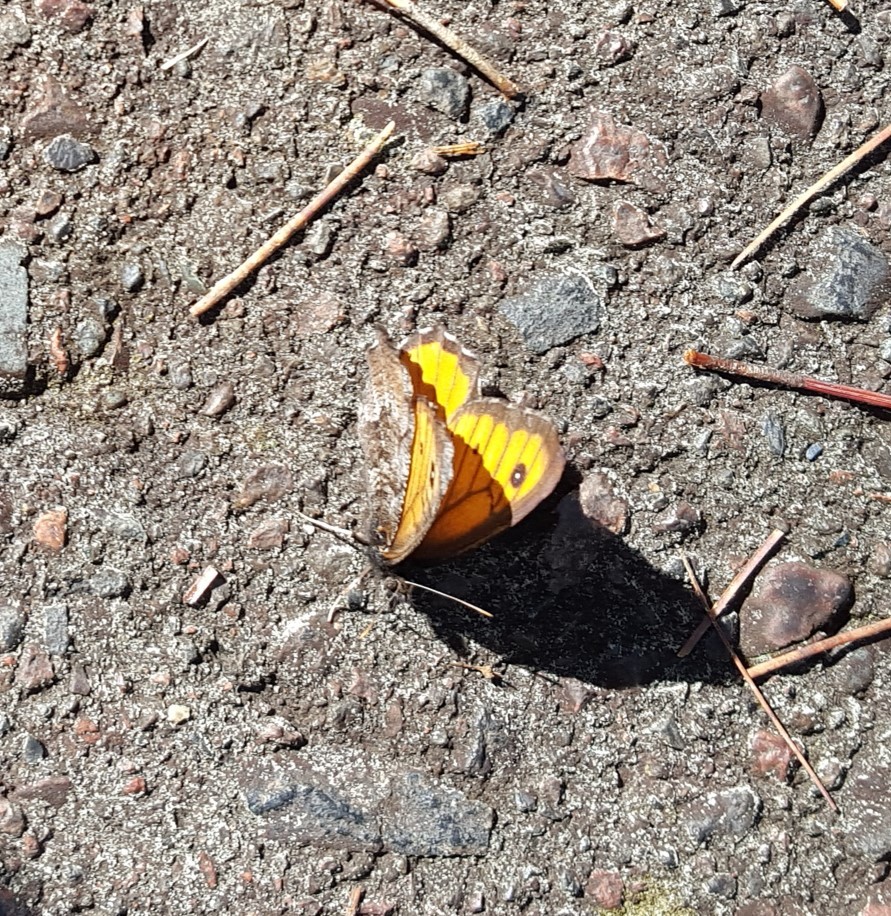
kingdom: Animalia
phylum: Arthropoda
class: Insecta
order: Lepidoptera
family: Nymphalidae
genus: Oeneis
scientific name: Oeneis macounii
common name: Macoun's arctic
